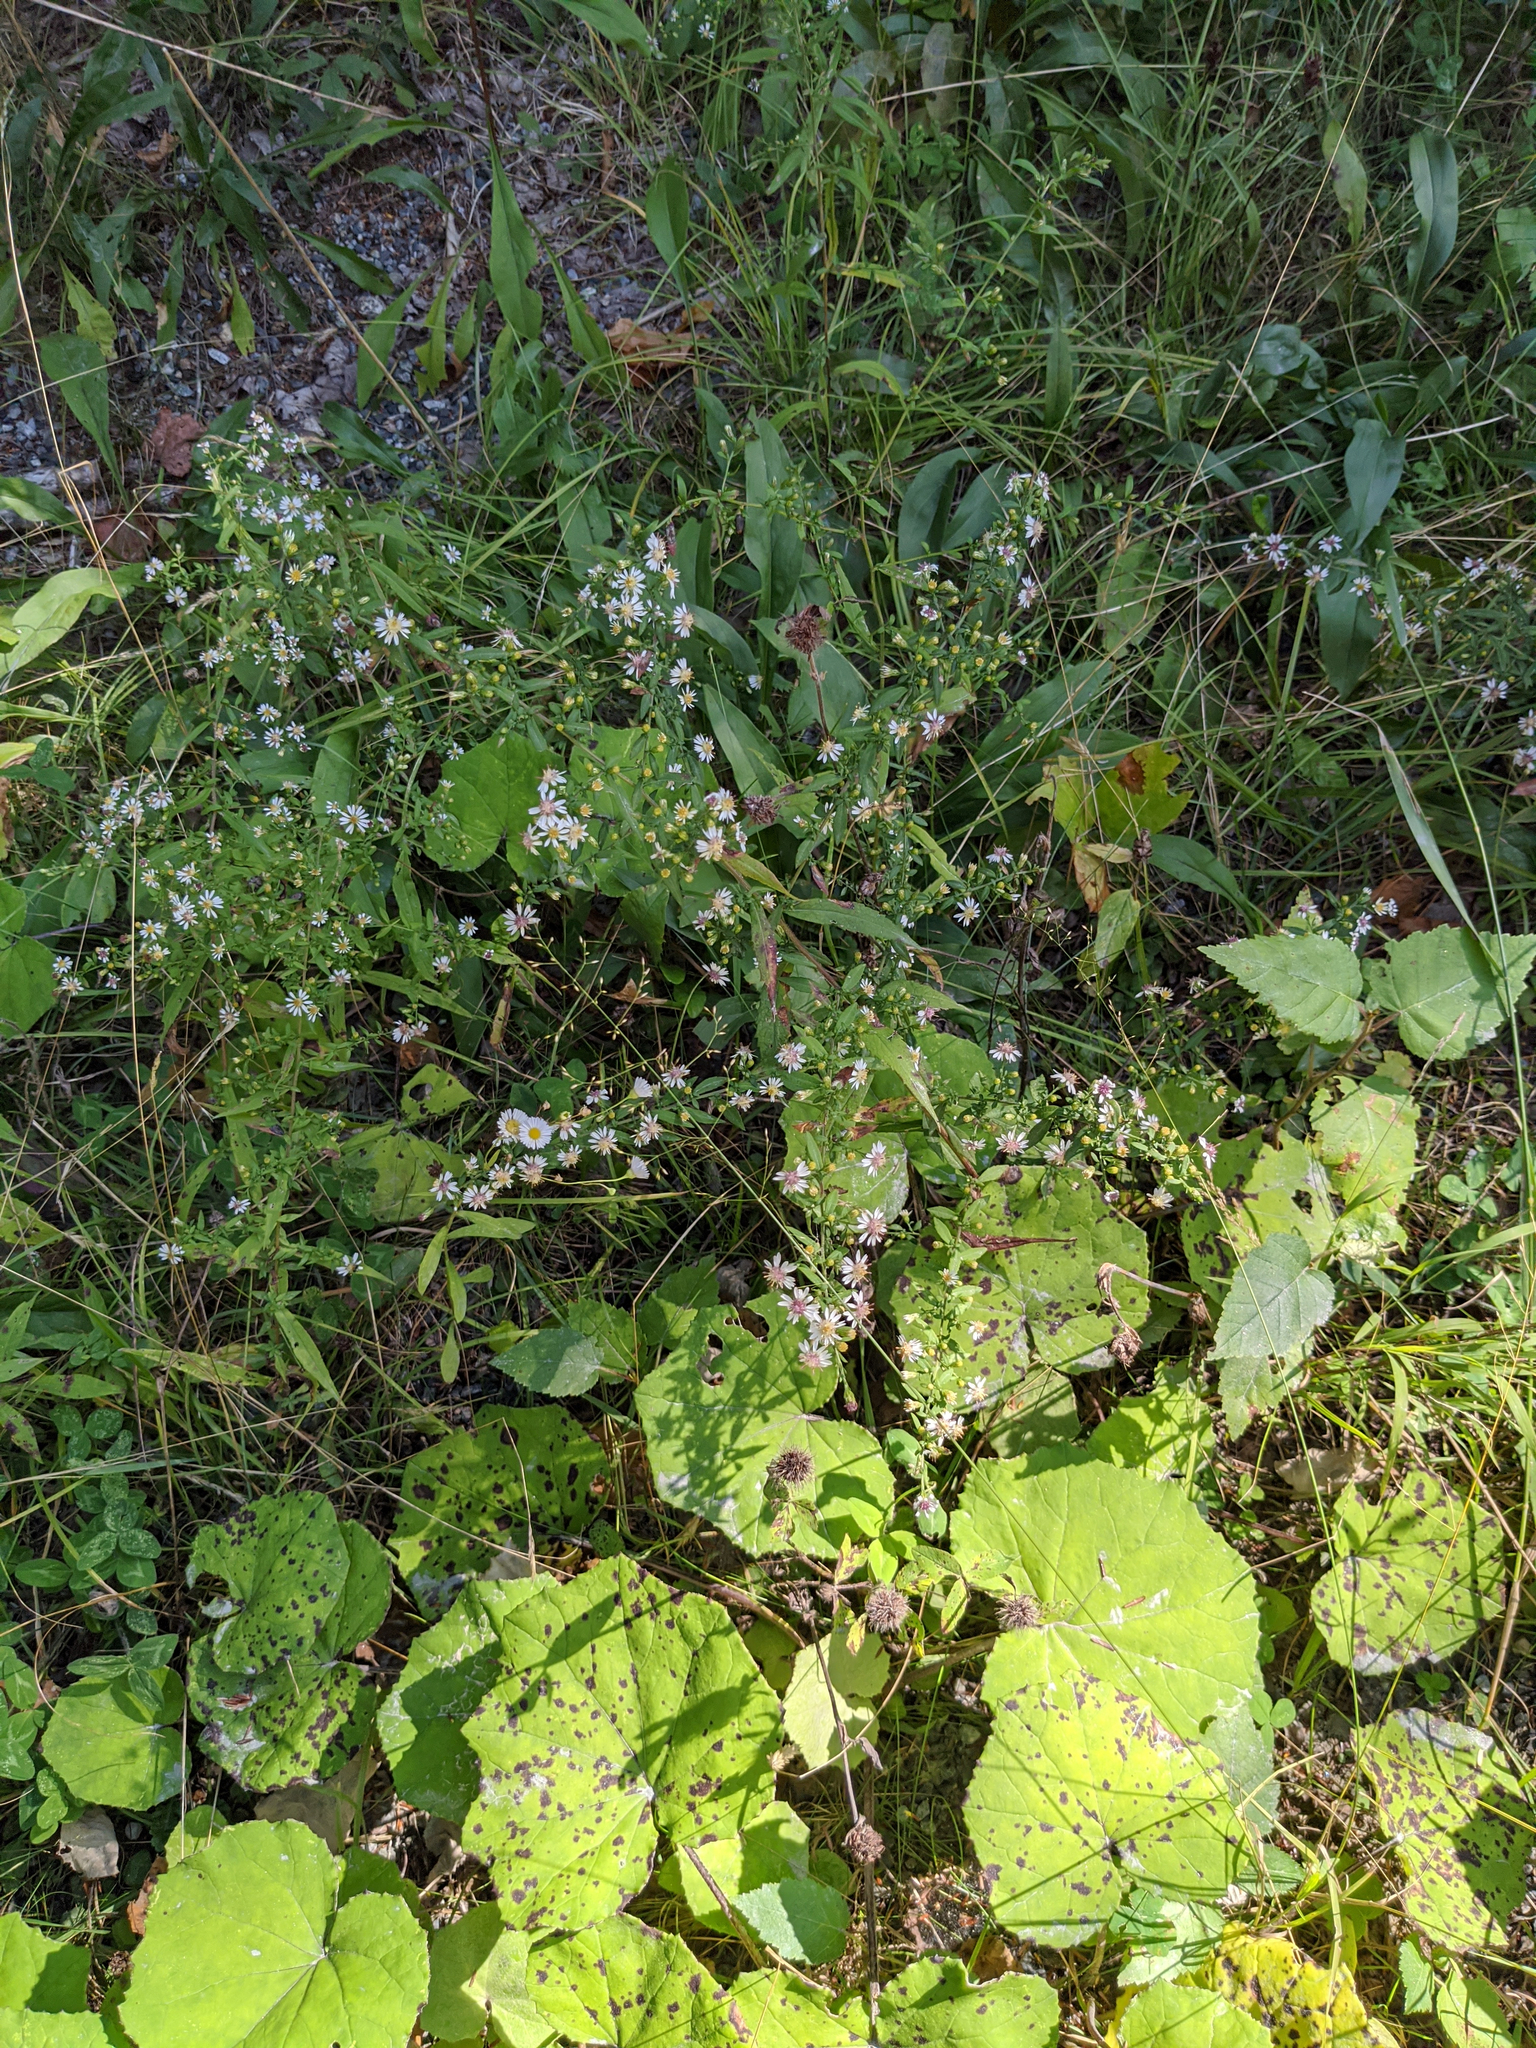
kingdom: Plantae
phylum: Tracheophyta
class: Magnoliopsida
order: Asterales
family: Asteraceae
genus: Symphyotrichum
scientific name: Symphyotrichum lateriflorum
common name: Calico aster
